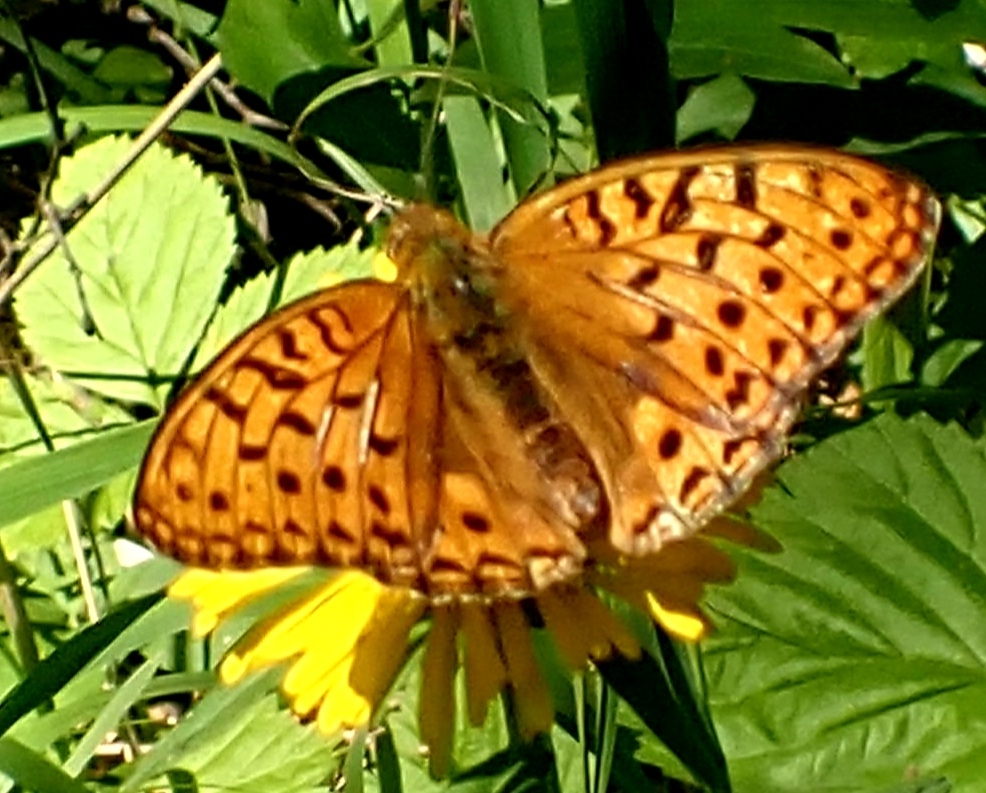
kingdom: Animalia
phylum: Arthropoda
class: Insecta
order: Lepidoptera
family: Nymphalidae
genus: Fabriciana
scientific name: Fabriciana adippe
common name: High brown fritillary
